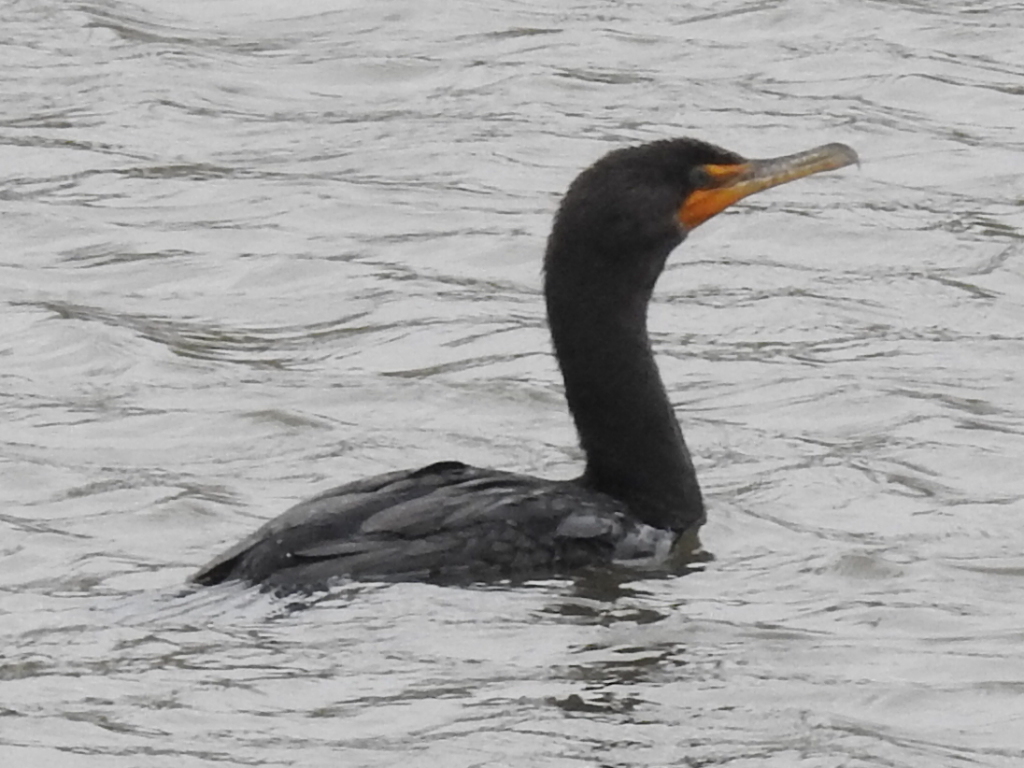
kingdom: Animalia
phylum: Chordata
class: Aves
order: Suliformes
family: Phalacrocoracidae
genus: Phalacrocorax
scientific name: Phalacrocorax auritus
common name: Double-crested cormorant
